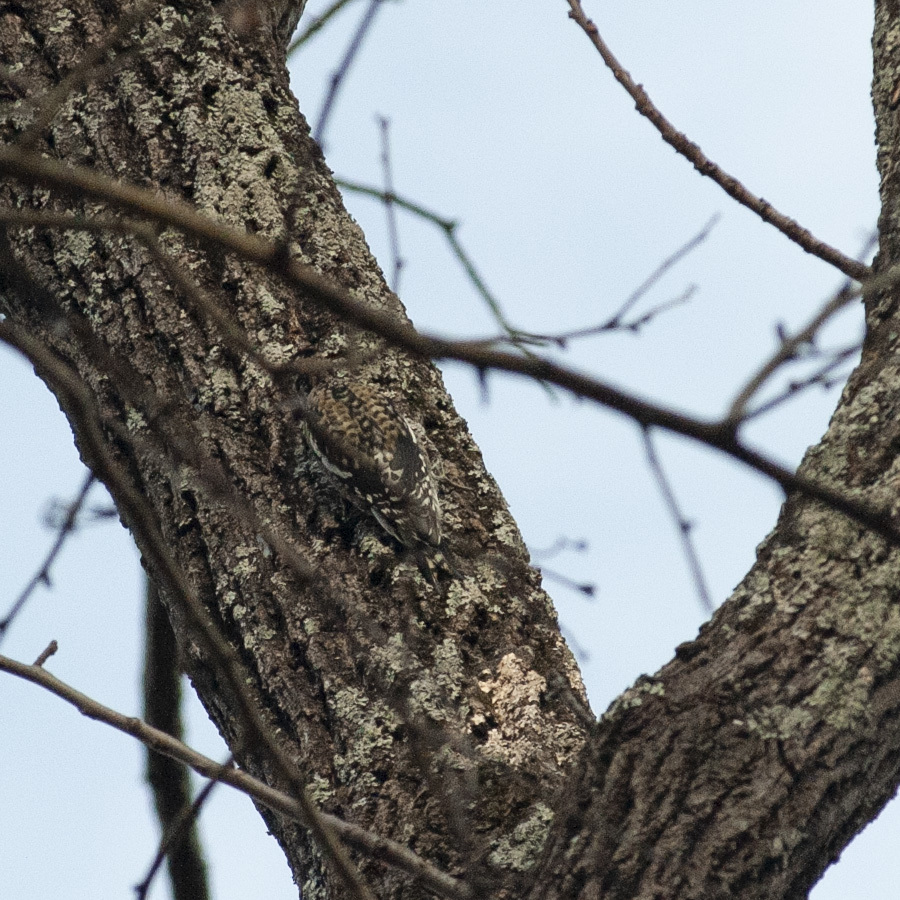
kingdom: Animalia
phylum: Chordata
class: Aves
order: Piciformes
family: Picidae
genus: Sphyrapicus
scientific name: Sphyrapicus varius
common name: Yellow-bellied sapsucker
